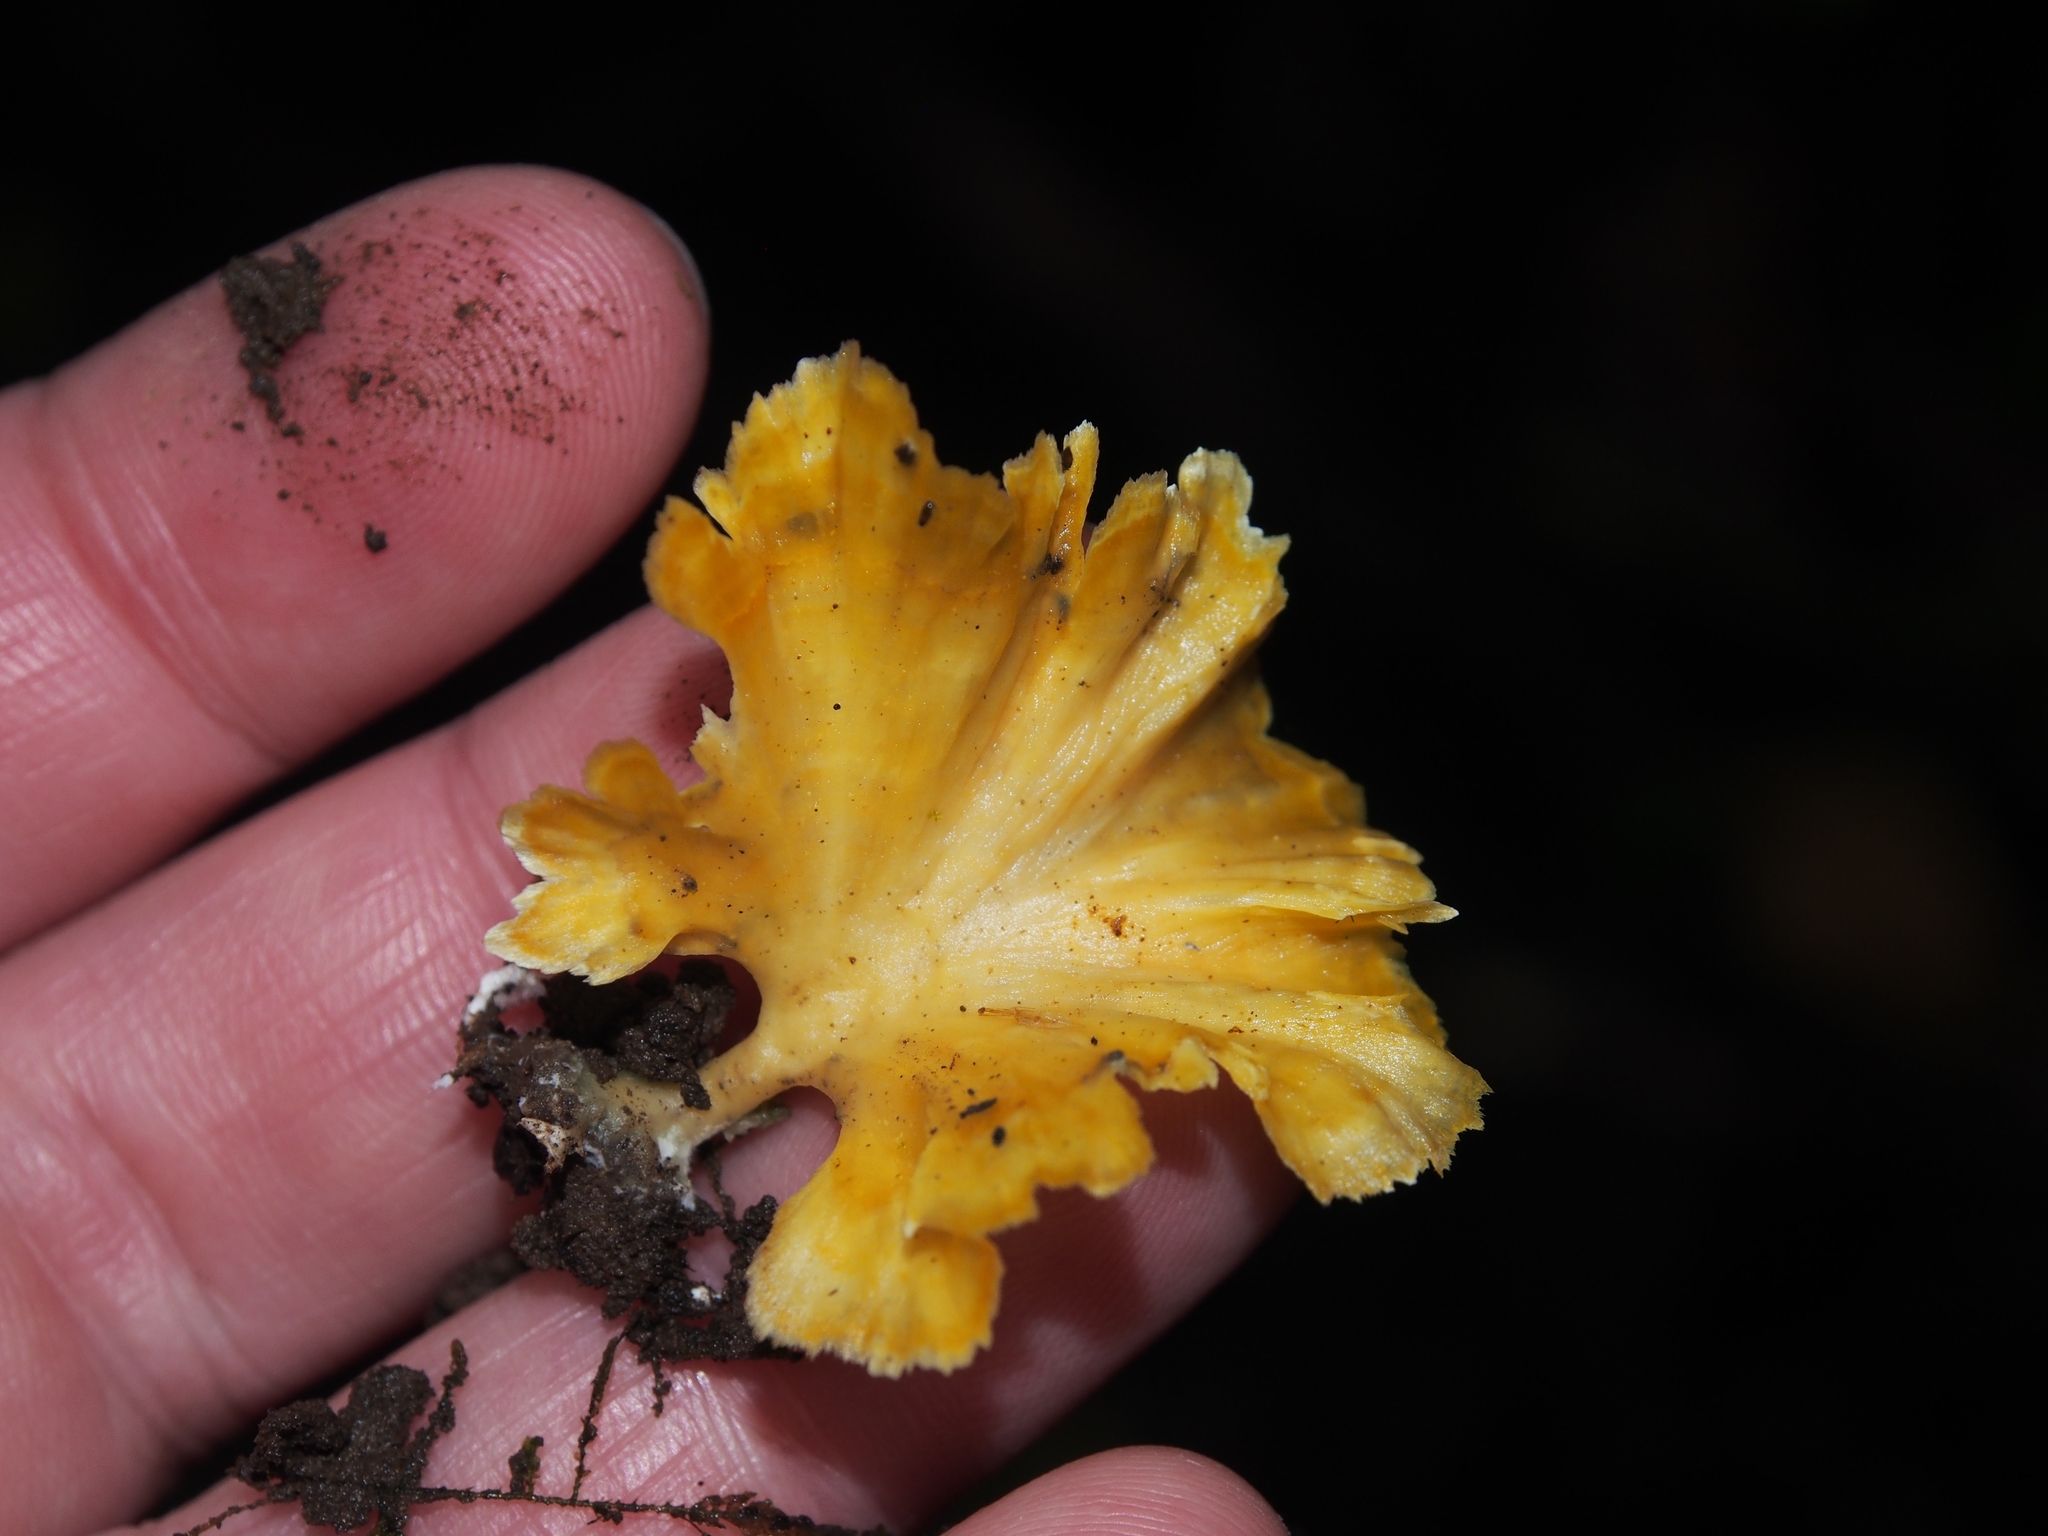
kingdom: Fungi
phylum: Basidiomycota
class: Agaricomycetes
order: Hymenochaetales
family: Rickenellaceae
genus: Cotylidia
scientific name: Cotylidia aurantiaca
